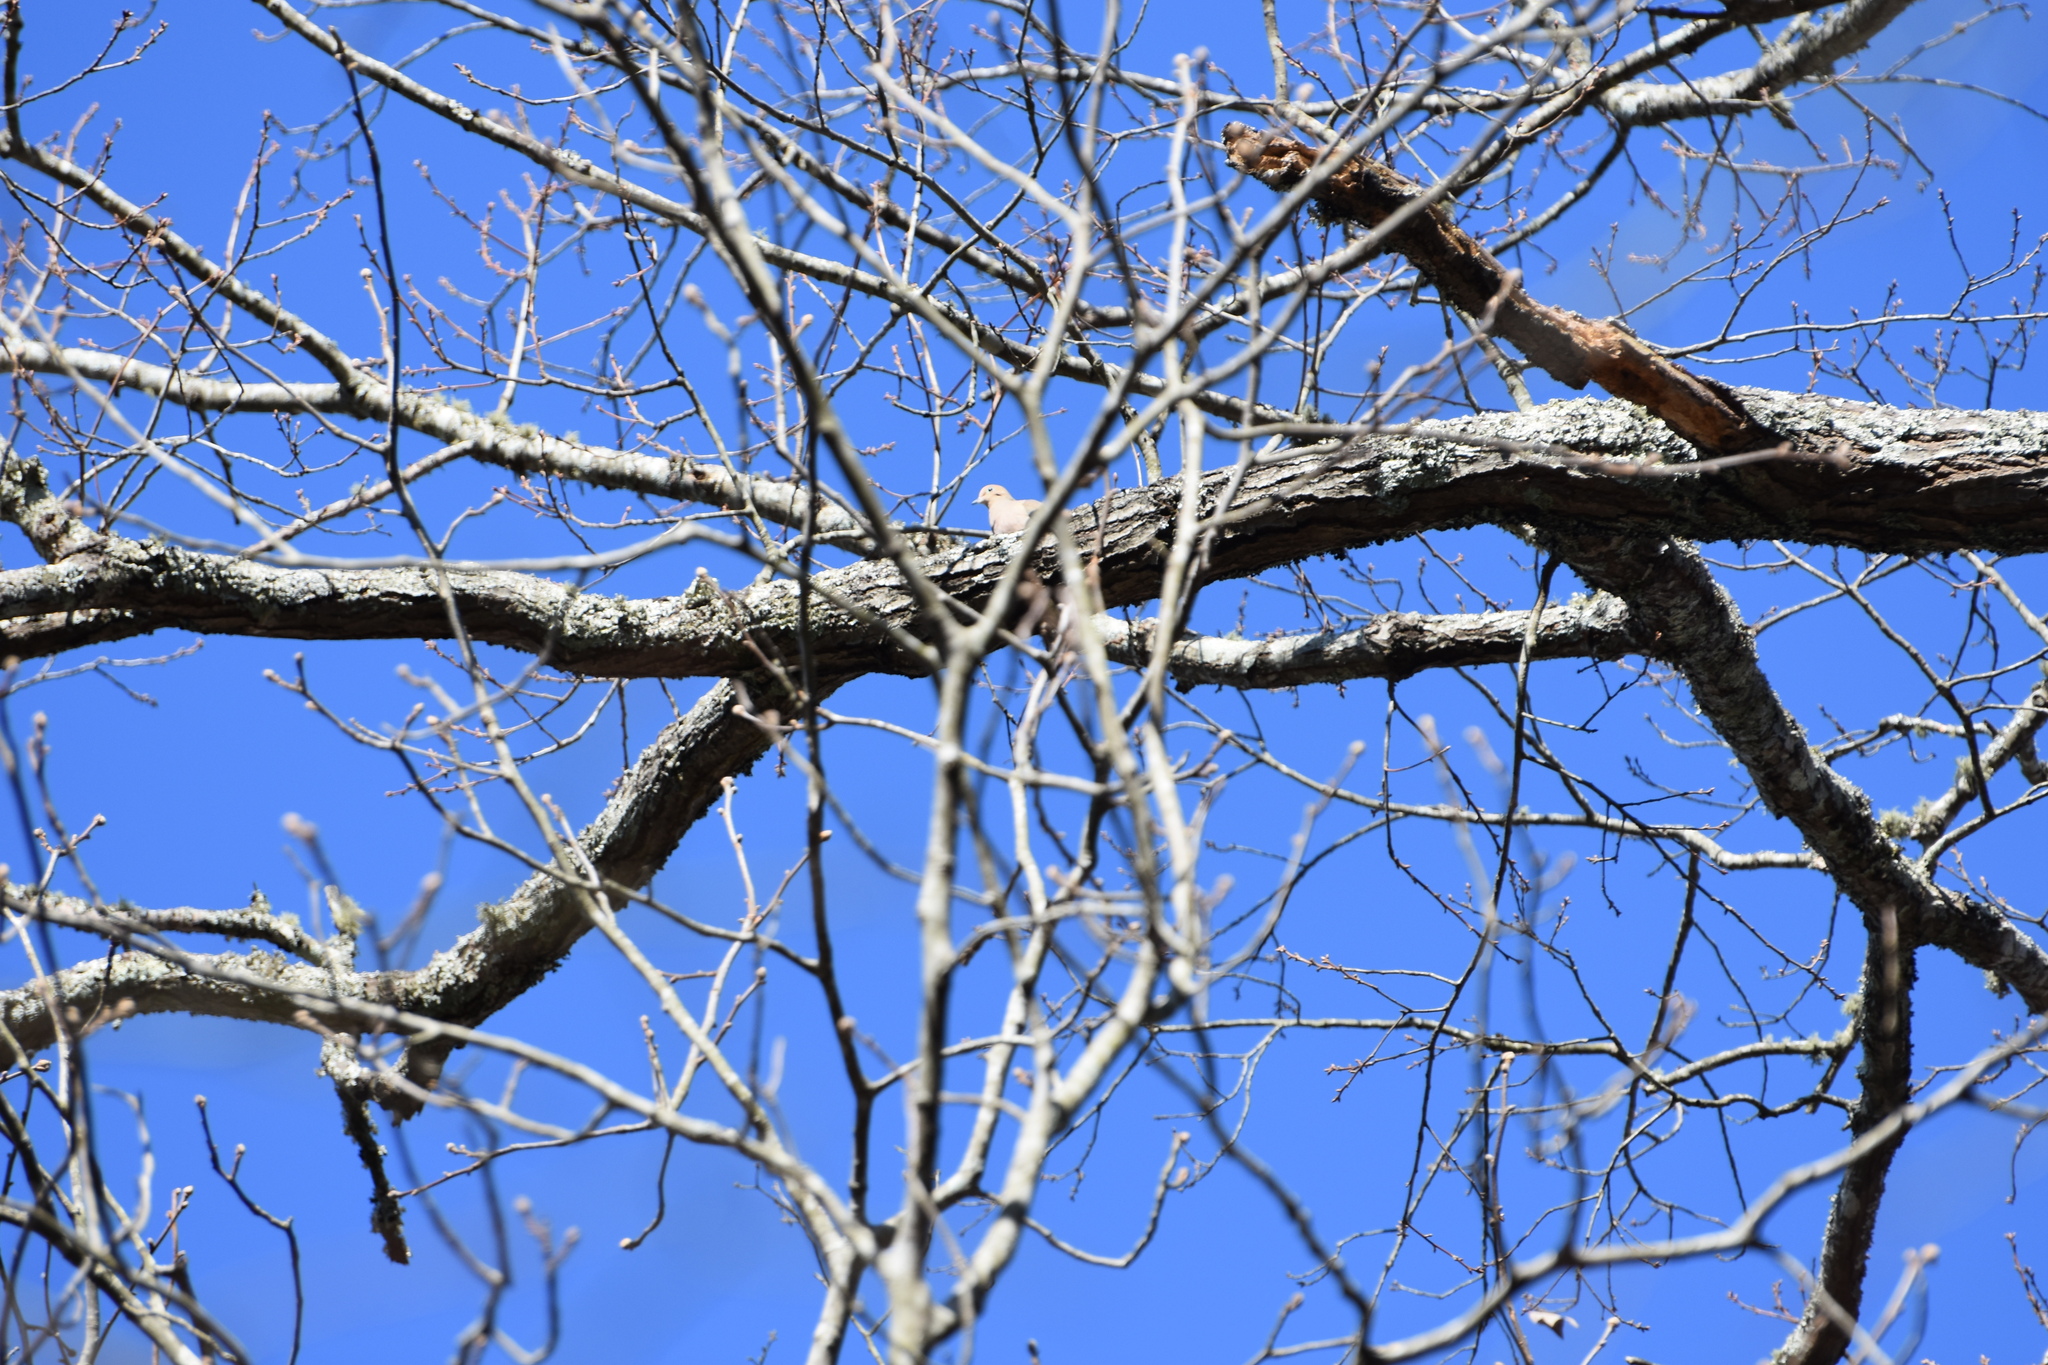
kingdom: Animalia
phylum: Chordata
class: Aves
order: Columbiformes
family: Columbidae
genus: Zenaida
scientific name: Zenaida macroura
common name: Mourning dove
